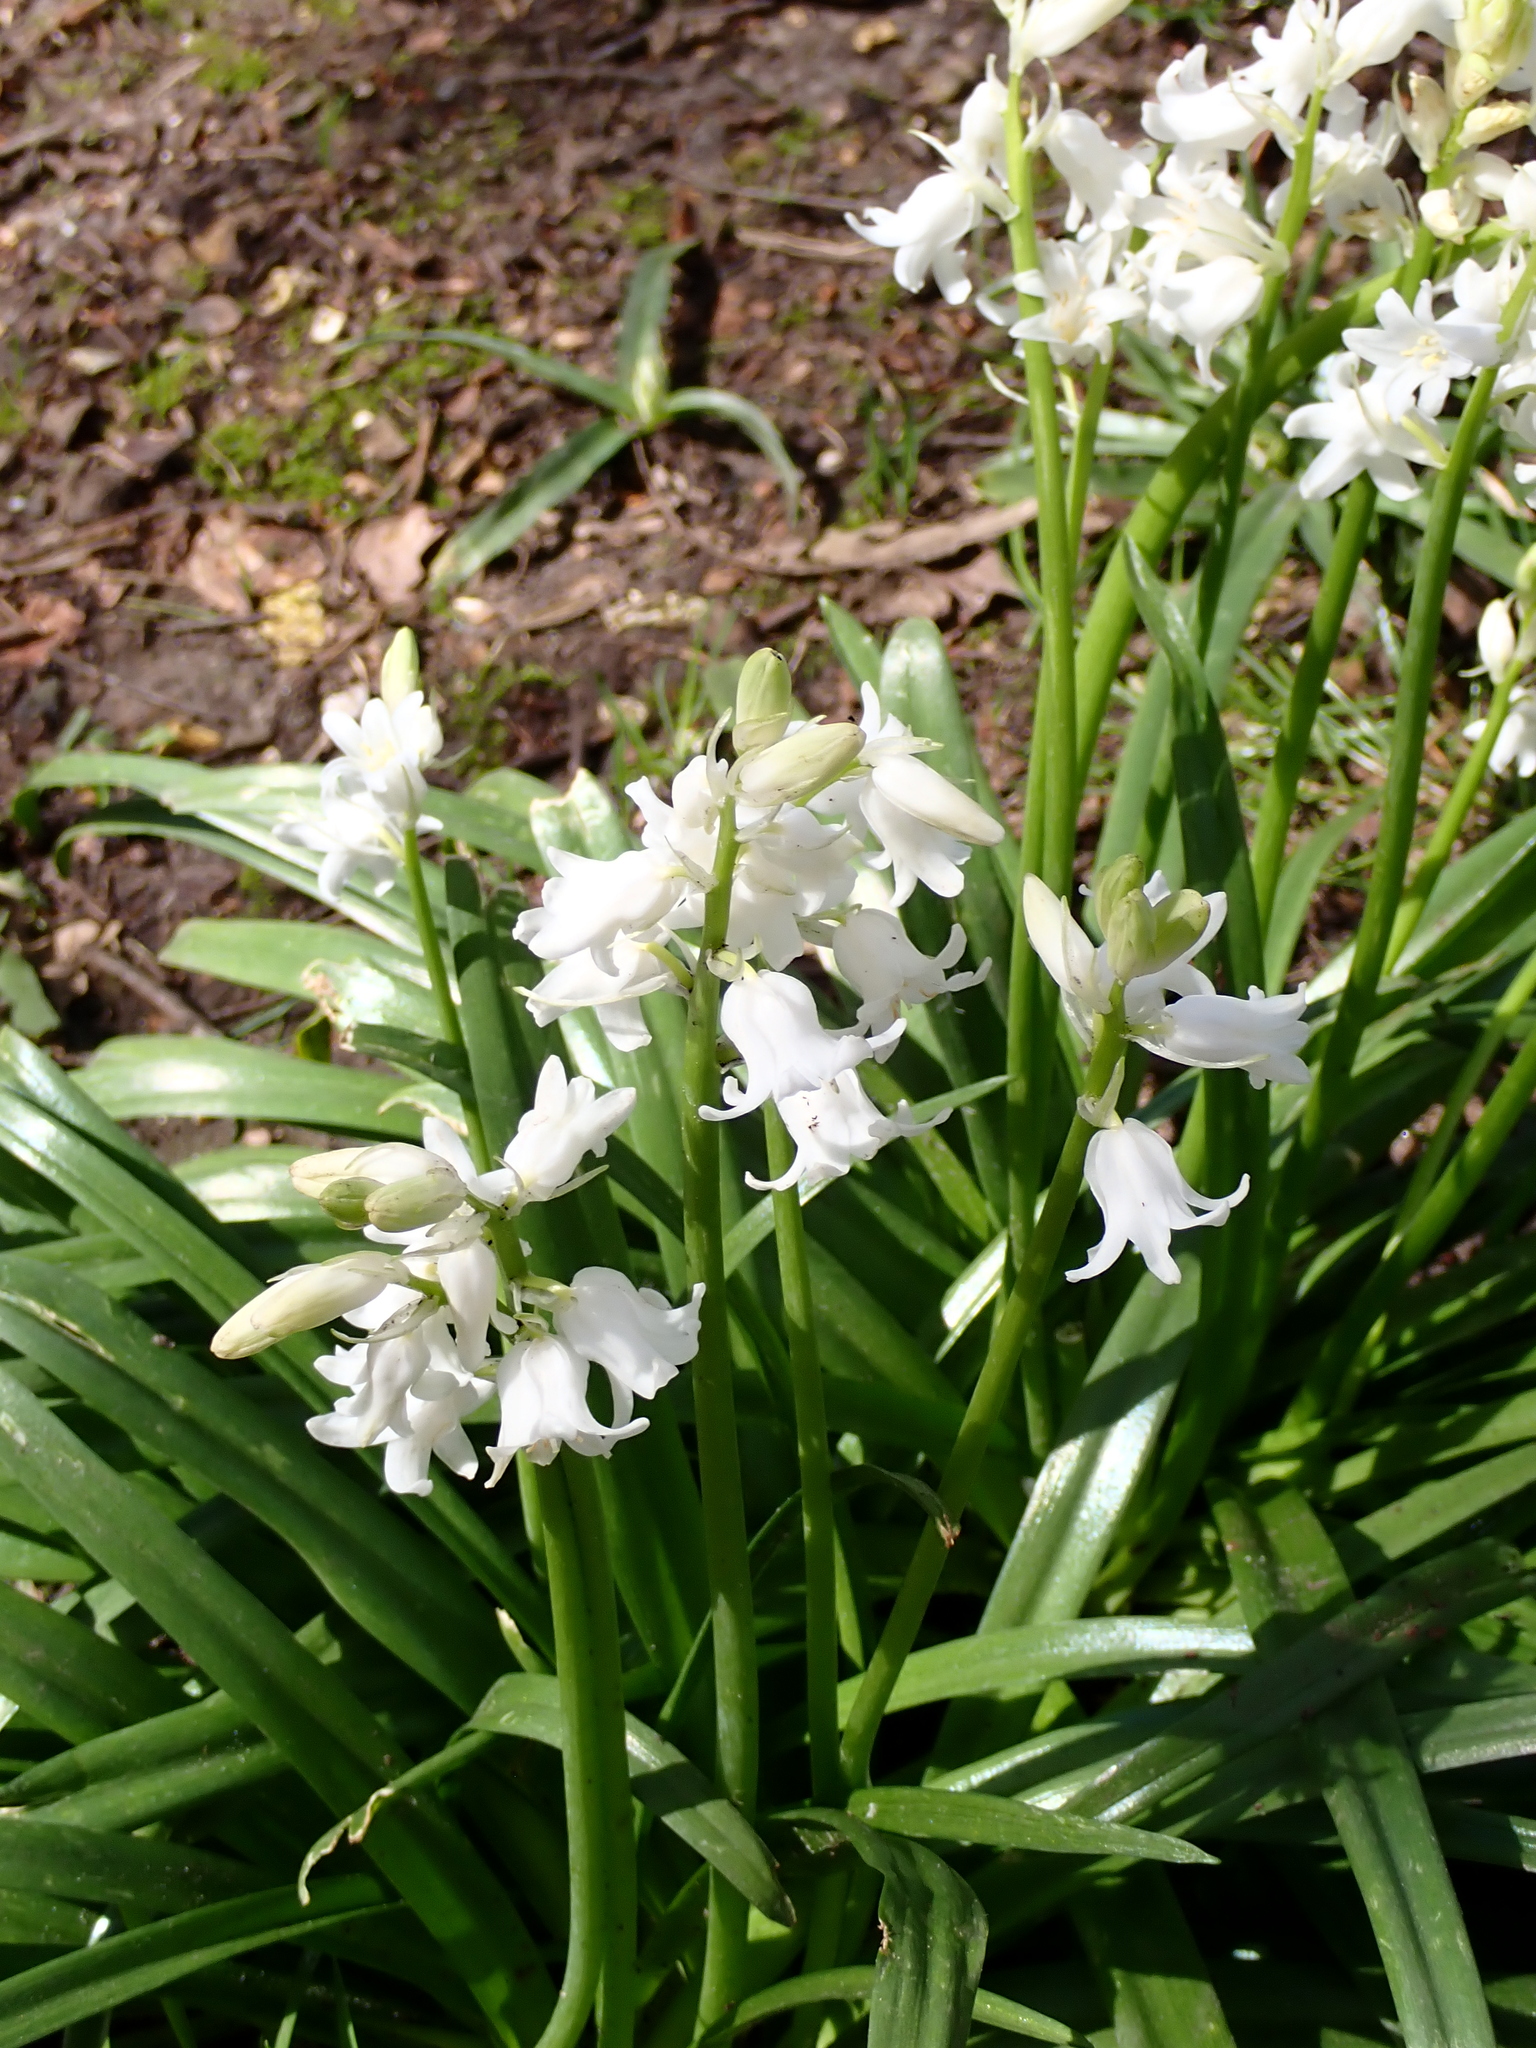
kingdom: Plantae
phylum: Tracheophyta
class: Liliopsida
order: Asparagales
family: Asparagaceae
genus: Hyacinthoides
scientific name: Hyacinthoides massartiana
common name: Hyacinthoides
